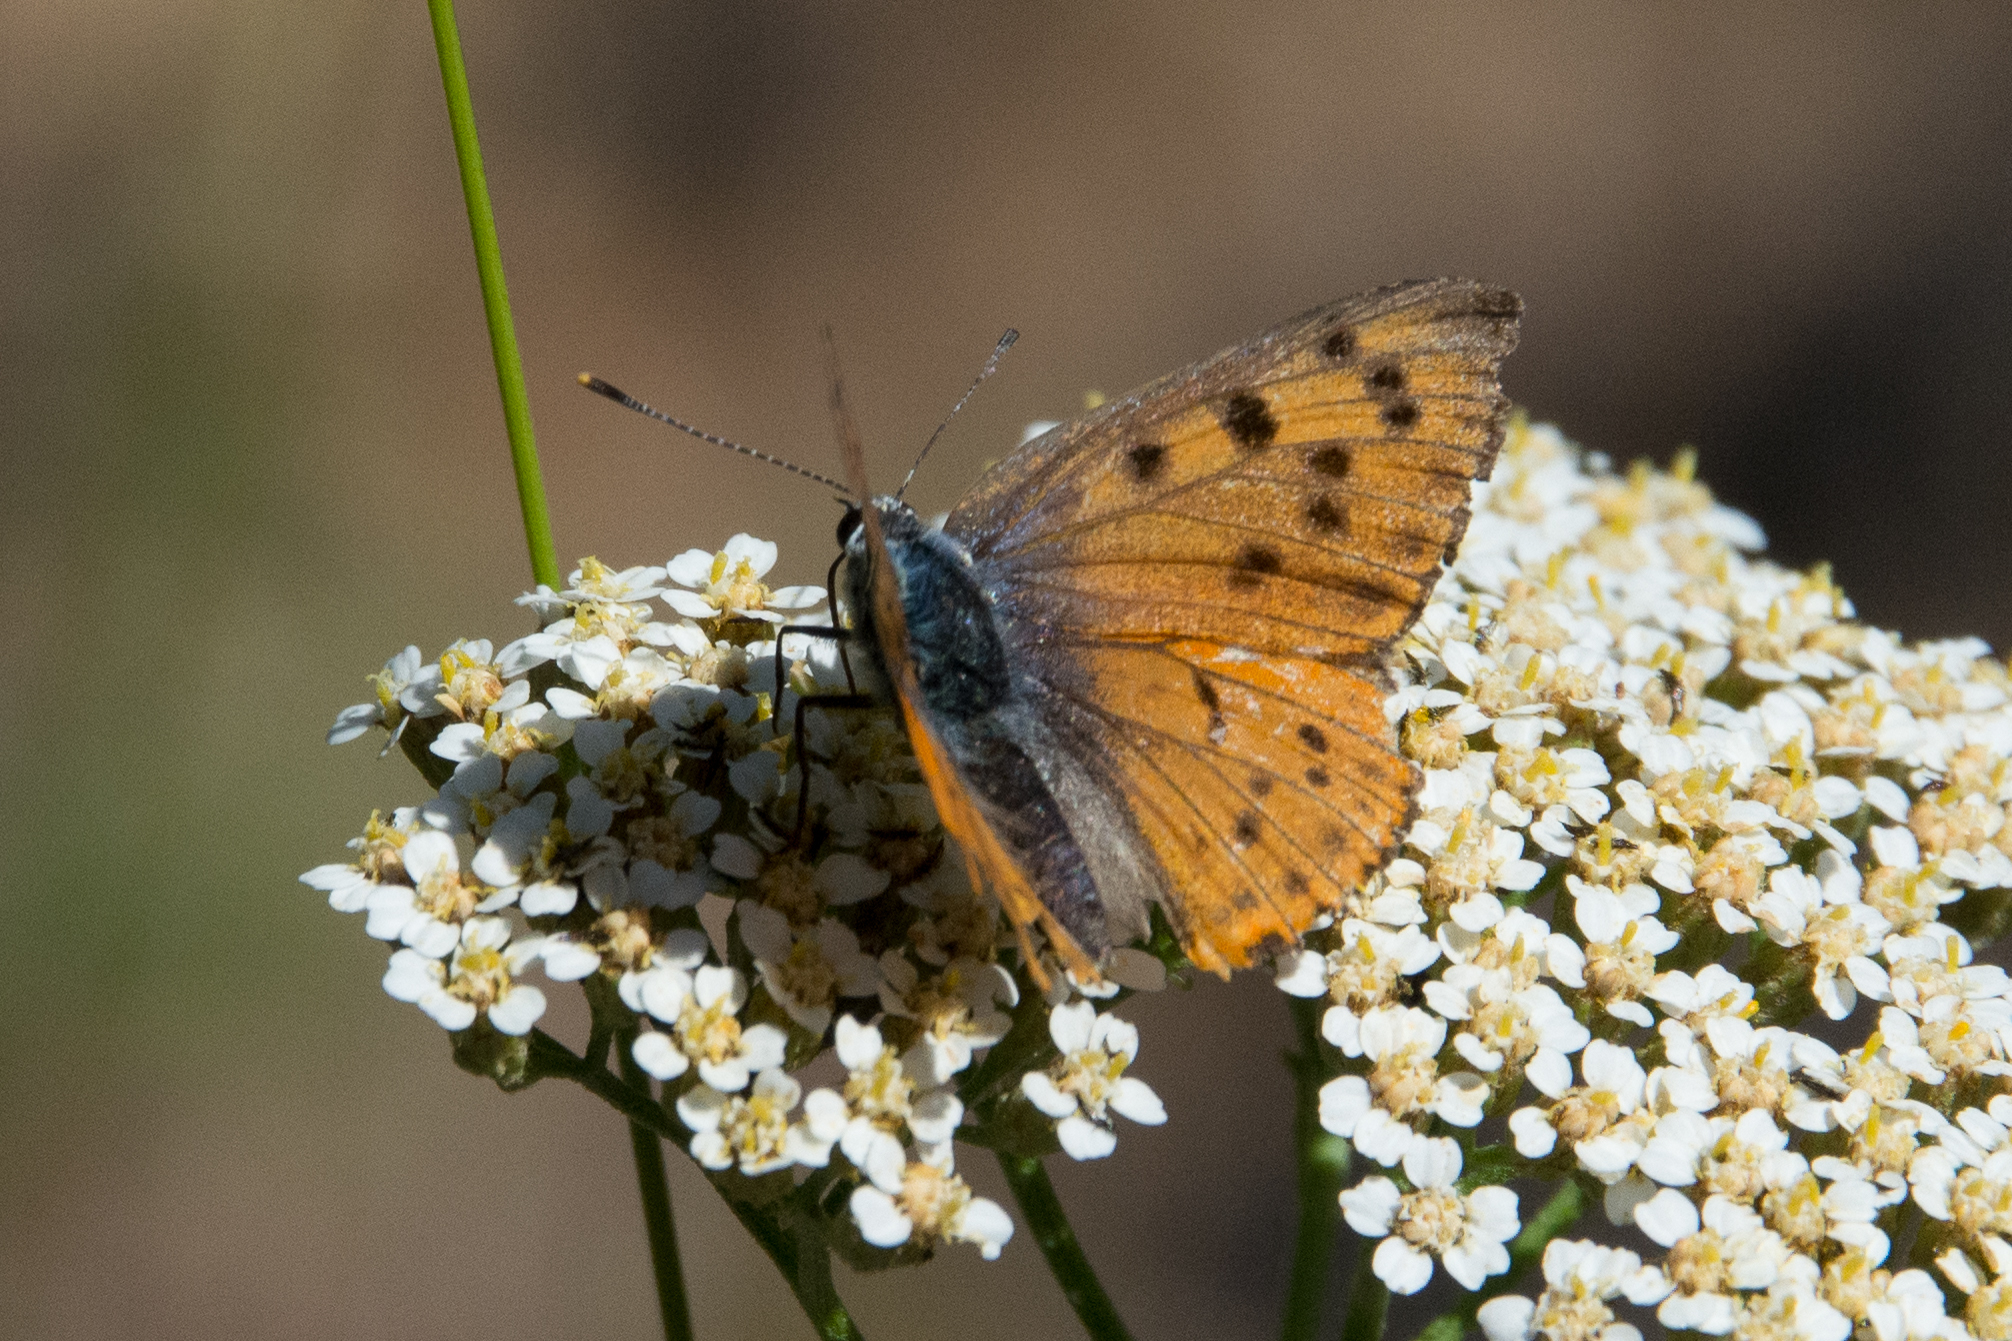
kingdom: Animalia
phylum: Arthropoda
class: Insecta
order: Lepidoptera
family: Lycaenidae
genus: Lycaena
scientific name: Lycaena alciphron
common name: Purple-shot copper
